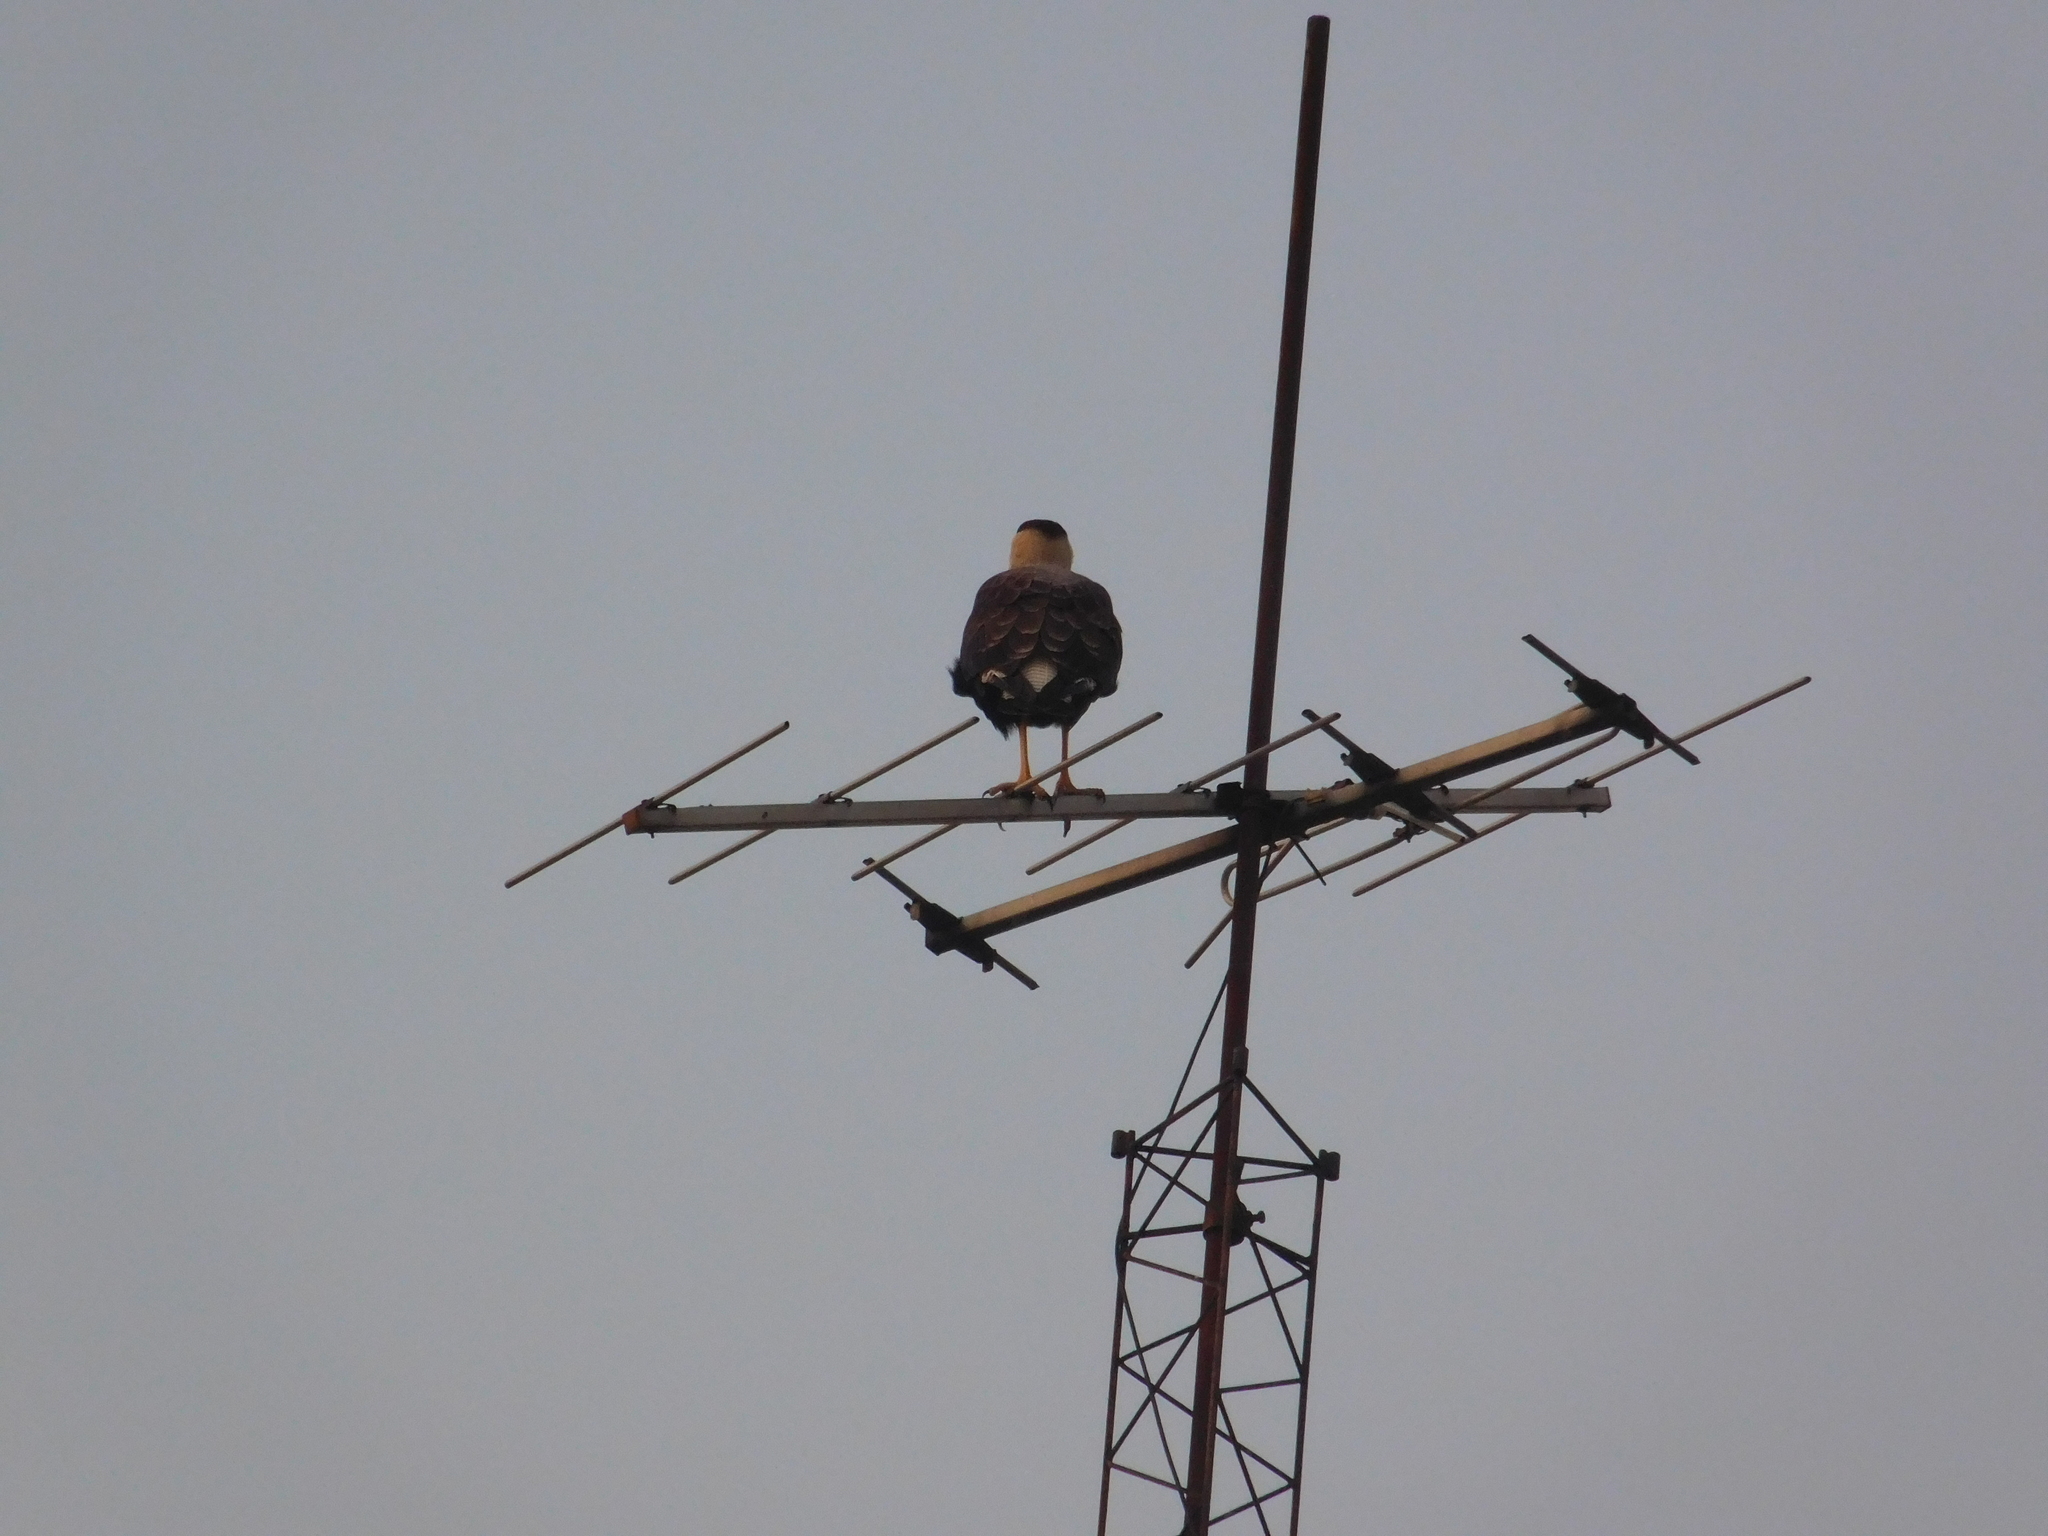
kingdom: Animalia
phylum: Chordata
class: Aves
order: Falconiformes
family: Falconidae
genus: Caracara
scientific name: Caracara plancus
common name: Southern caracara
